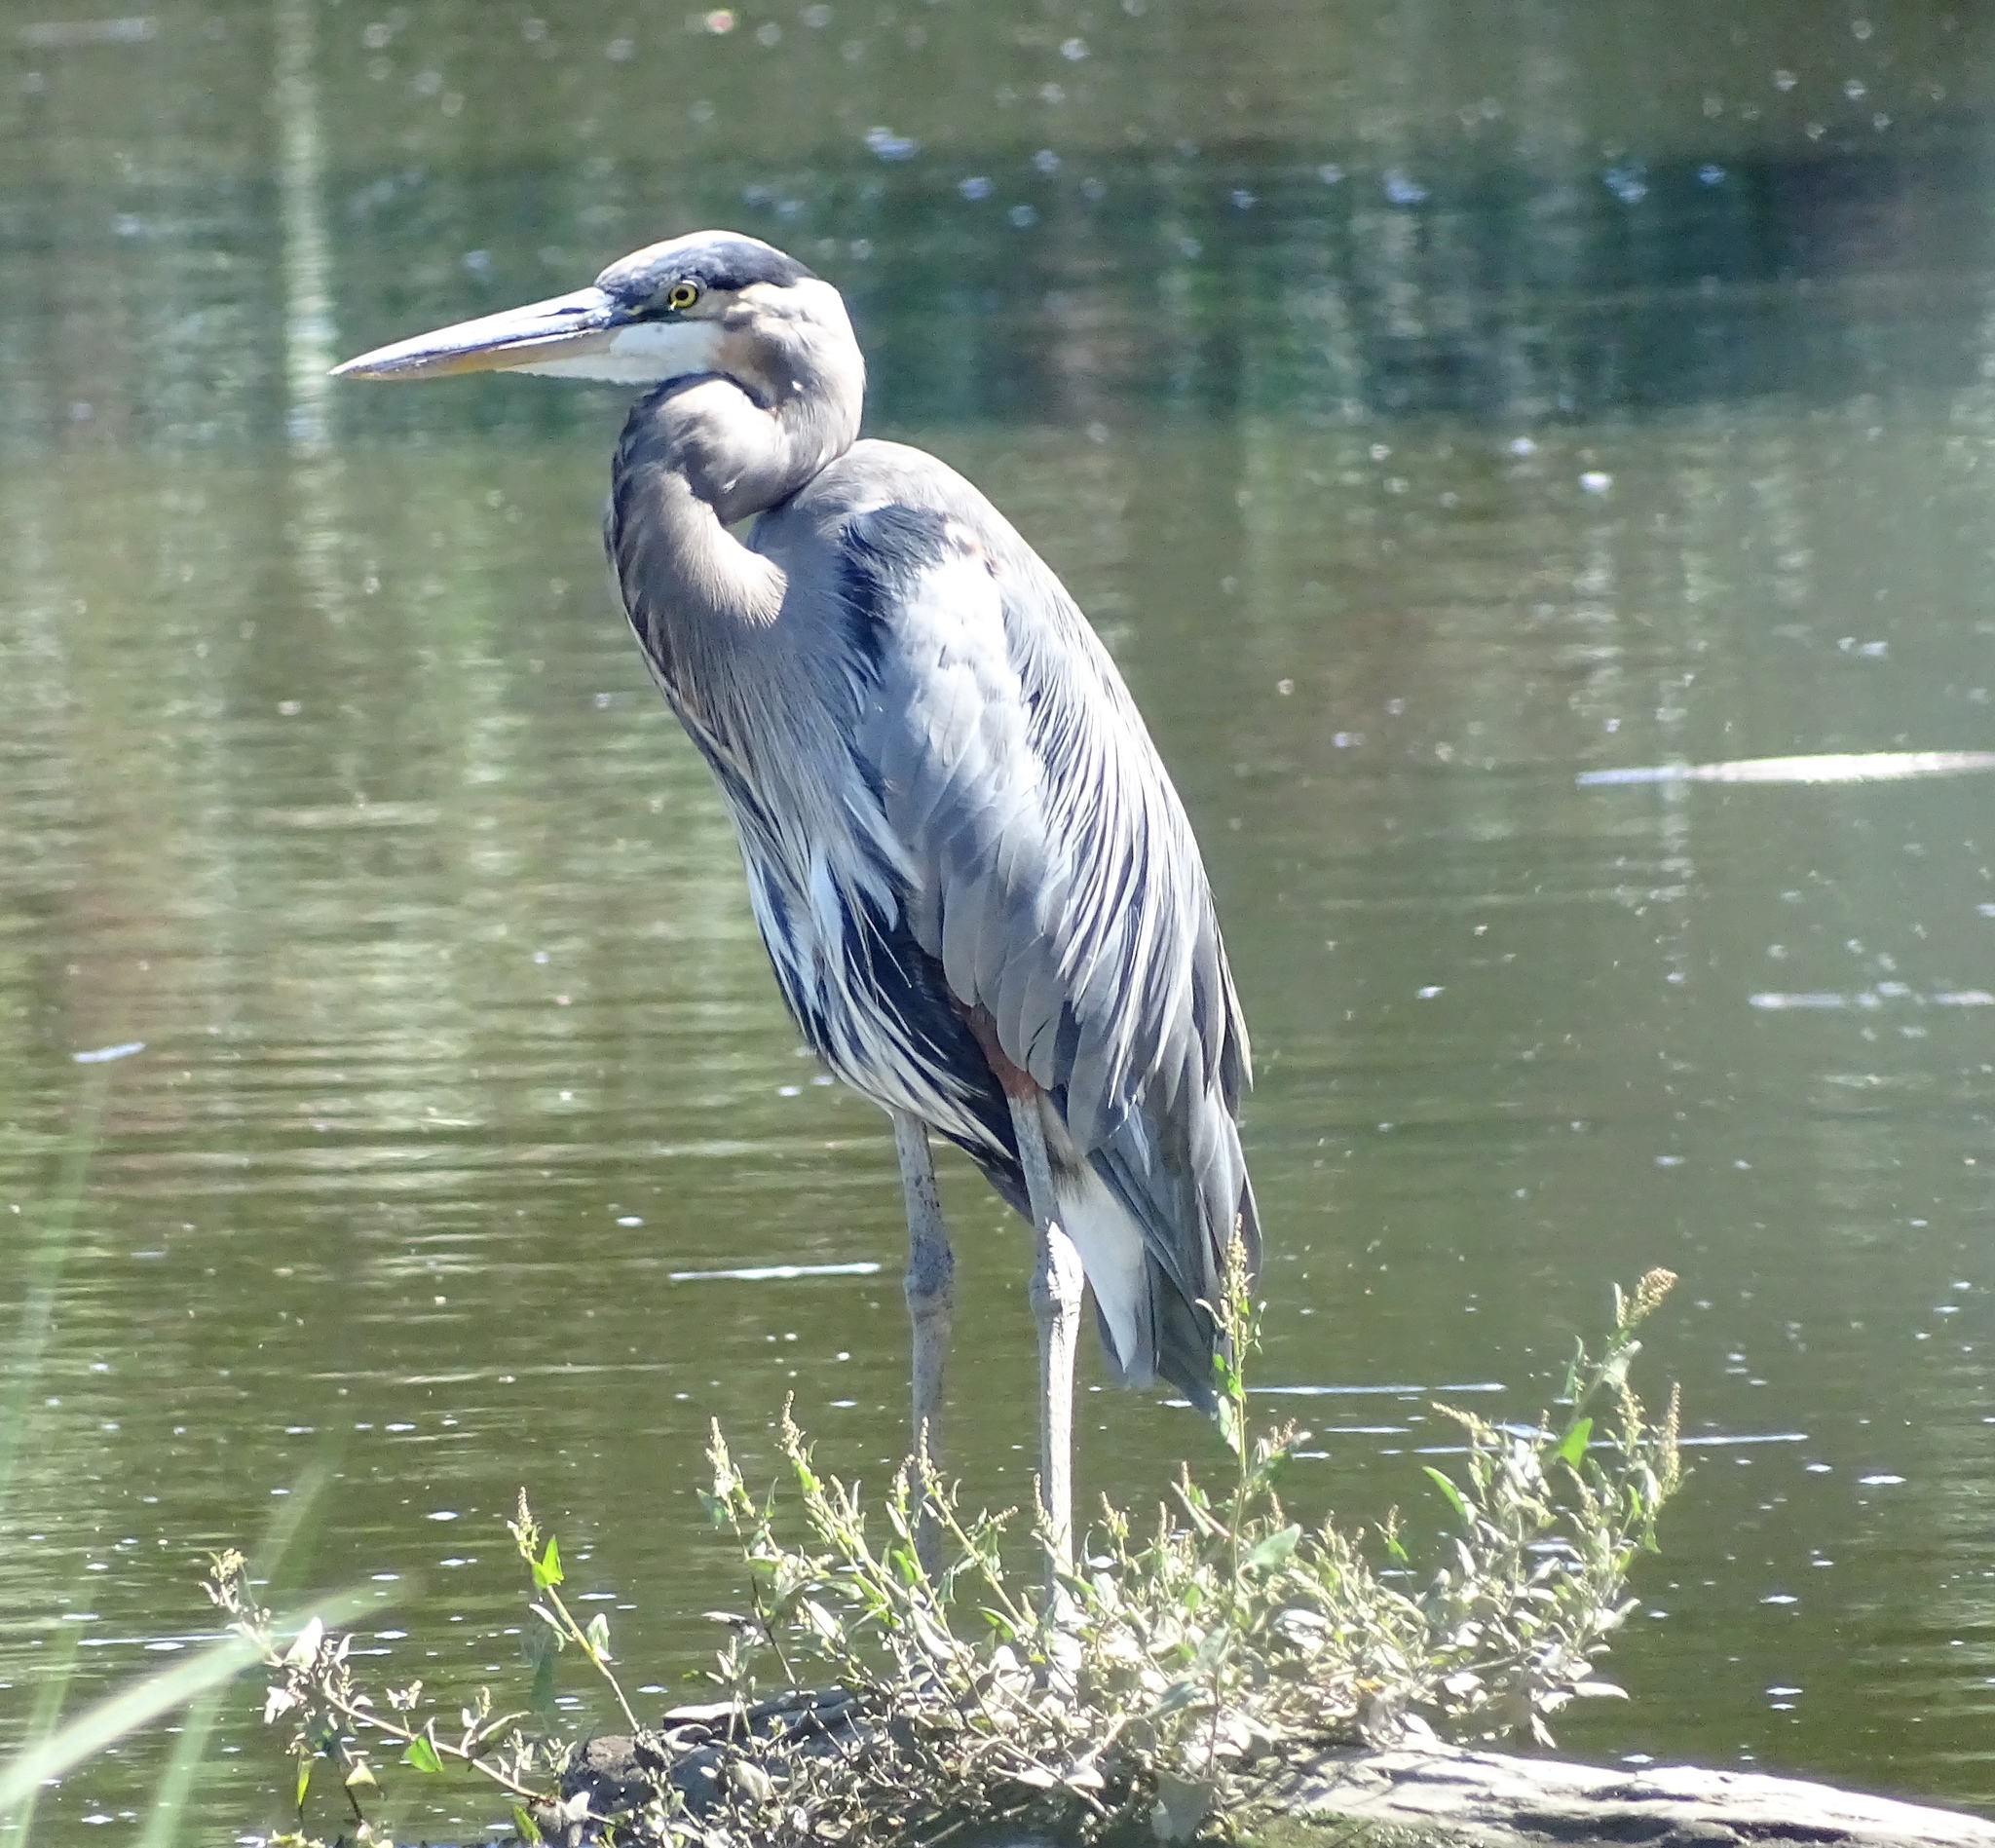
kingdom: Animalia
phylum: Chordata
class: Aves
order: Pelecaniformes
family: Ardeidae
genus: Ardea
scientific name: Ardea herodias
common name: Great blue heron
